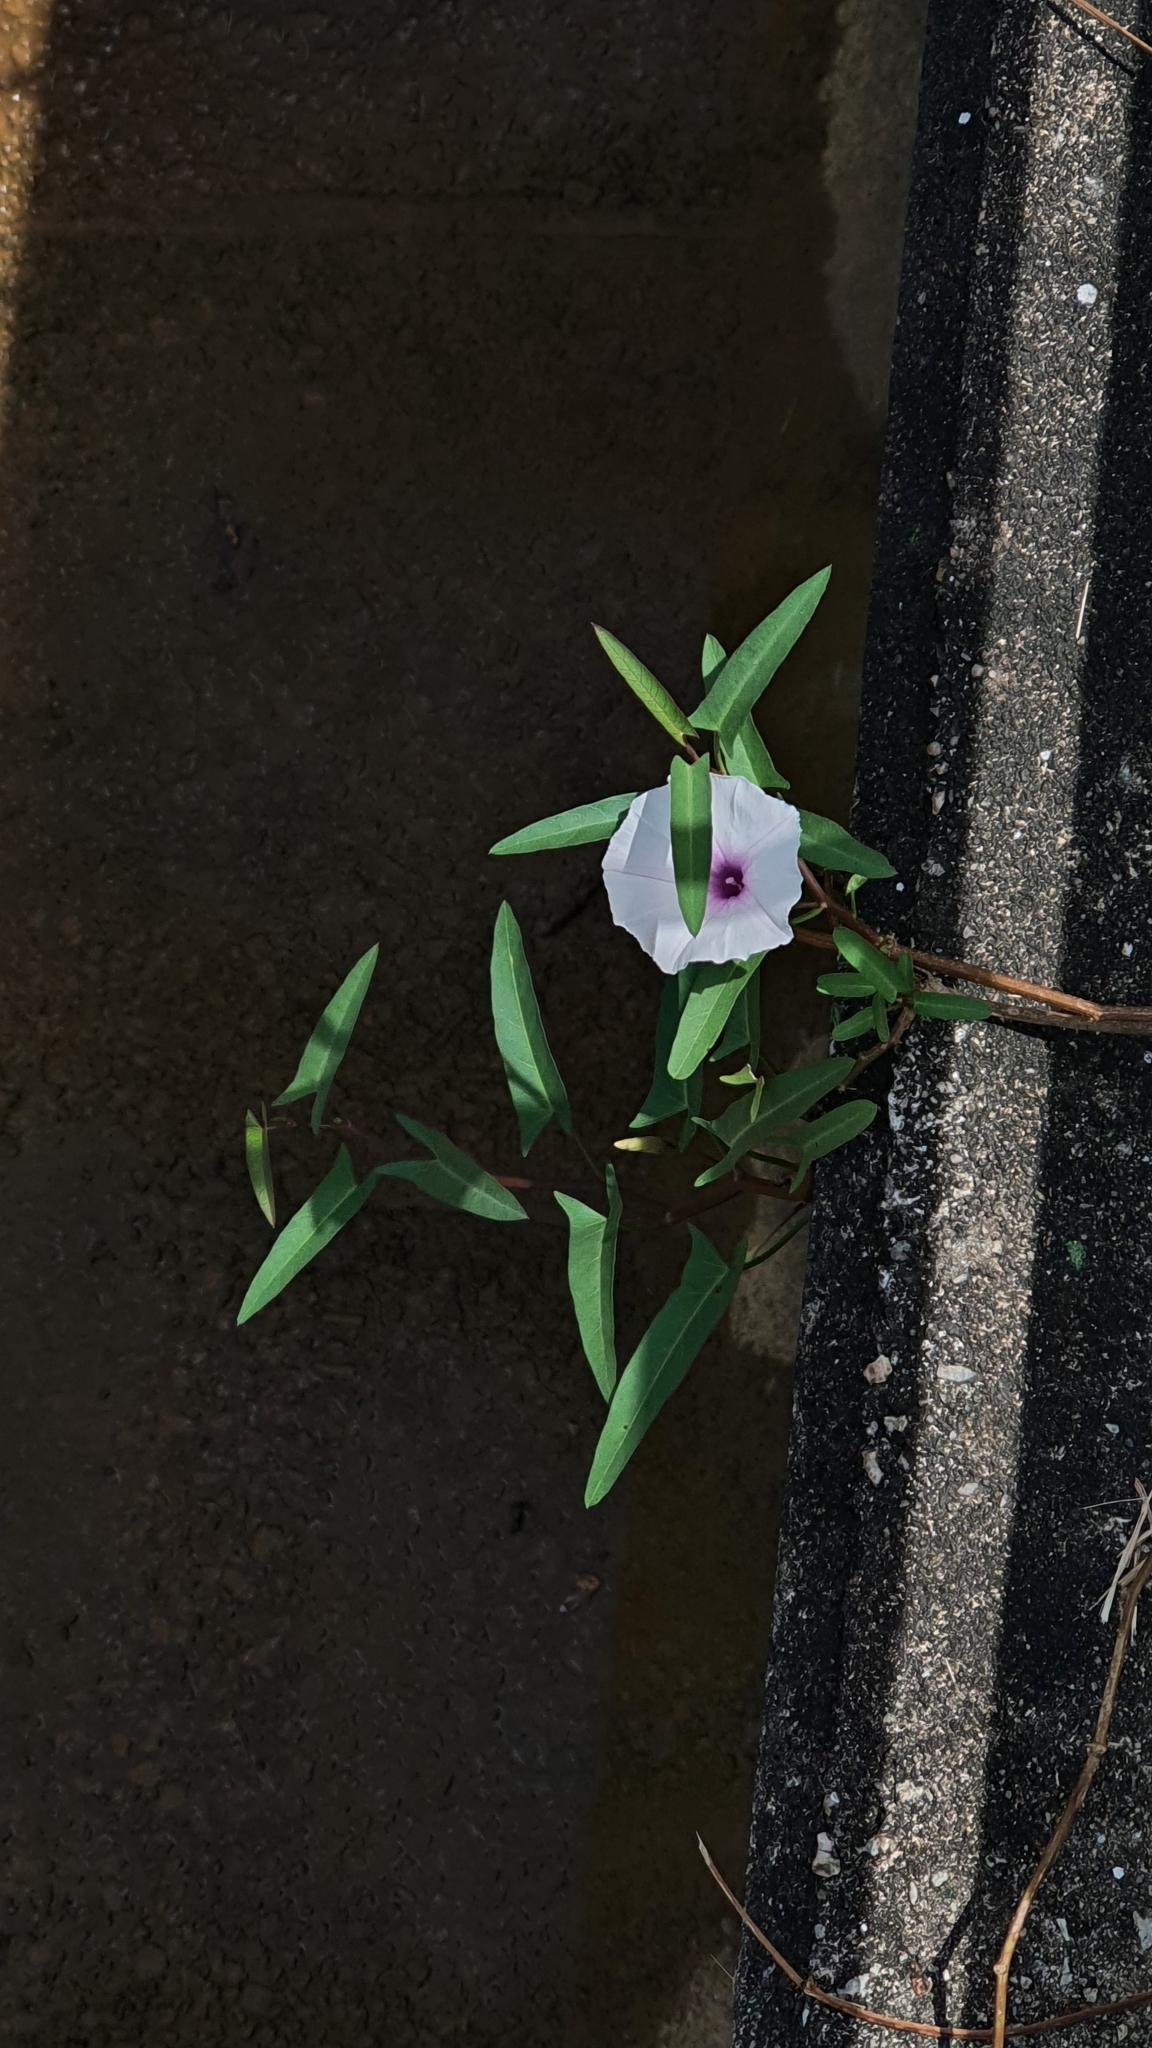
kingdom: Plantae
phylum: Tracheophyta
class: Magnoliopsida
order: Solanales
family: Convolvulaceae
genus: Ipomoea
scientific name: Ipomoea aquatica
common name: Swamp morning-glory
